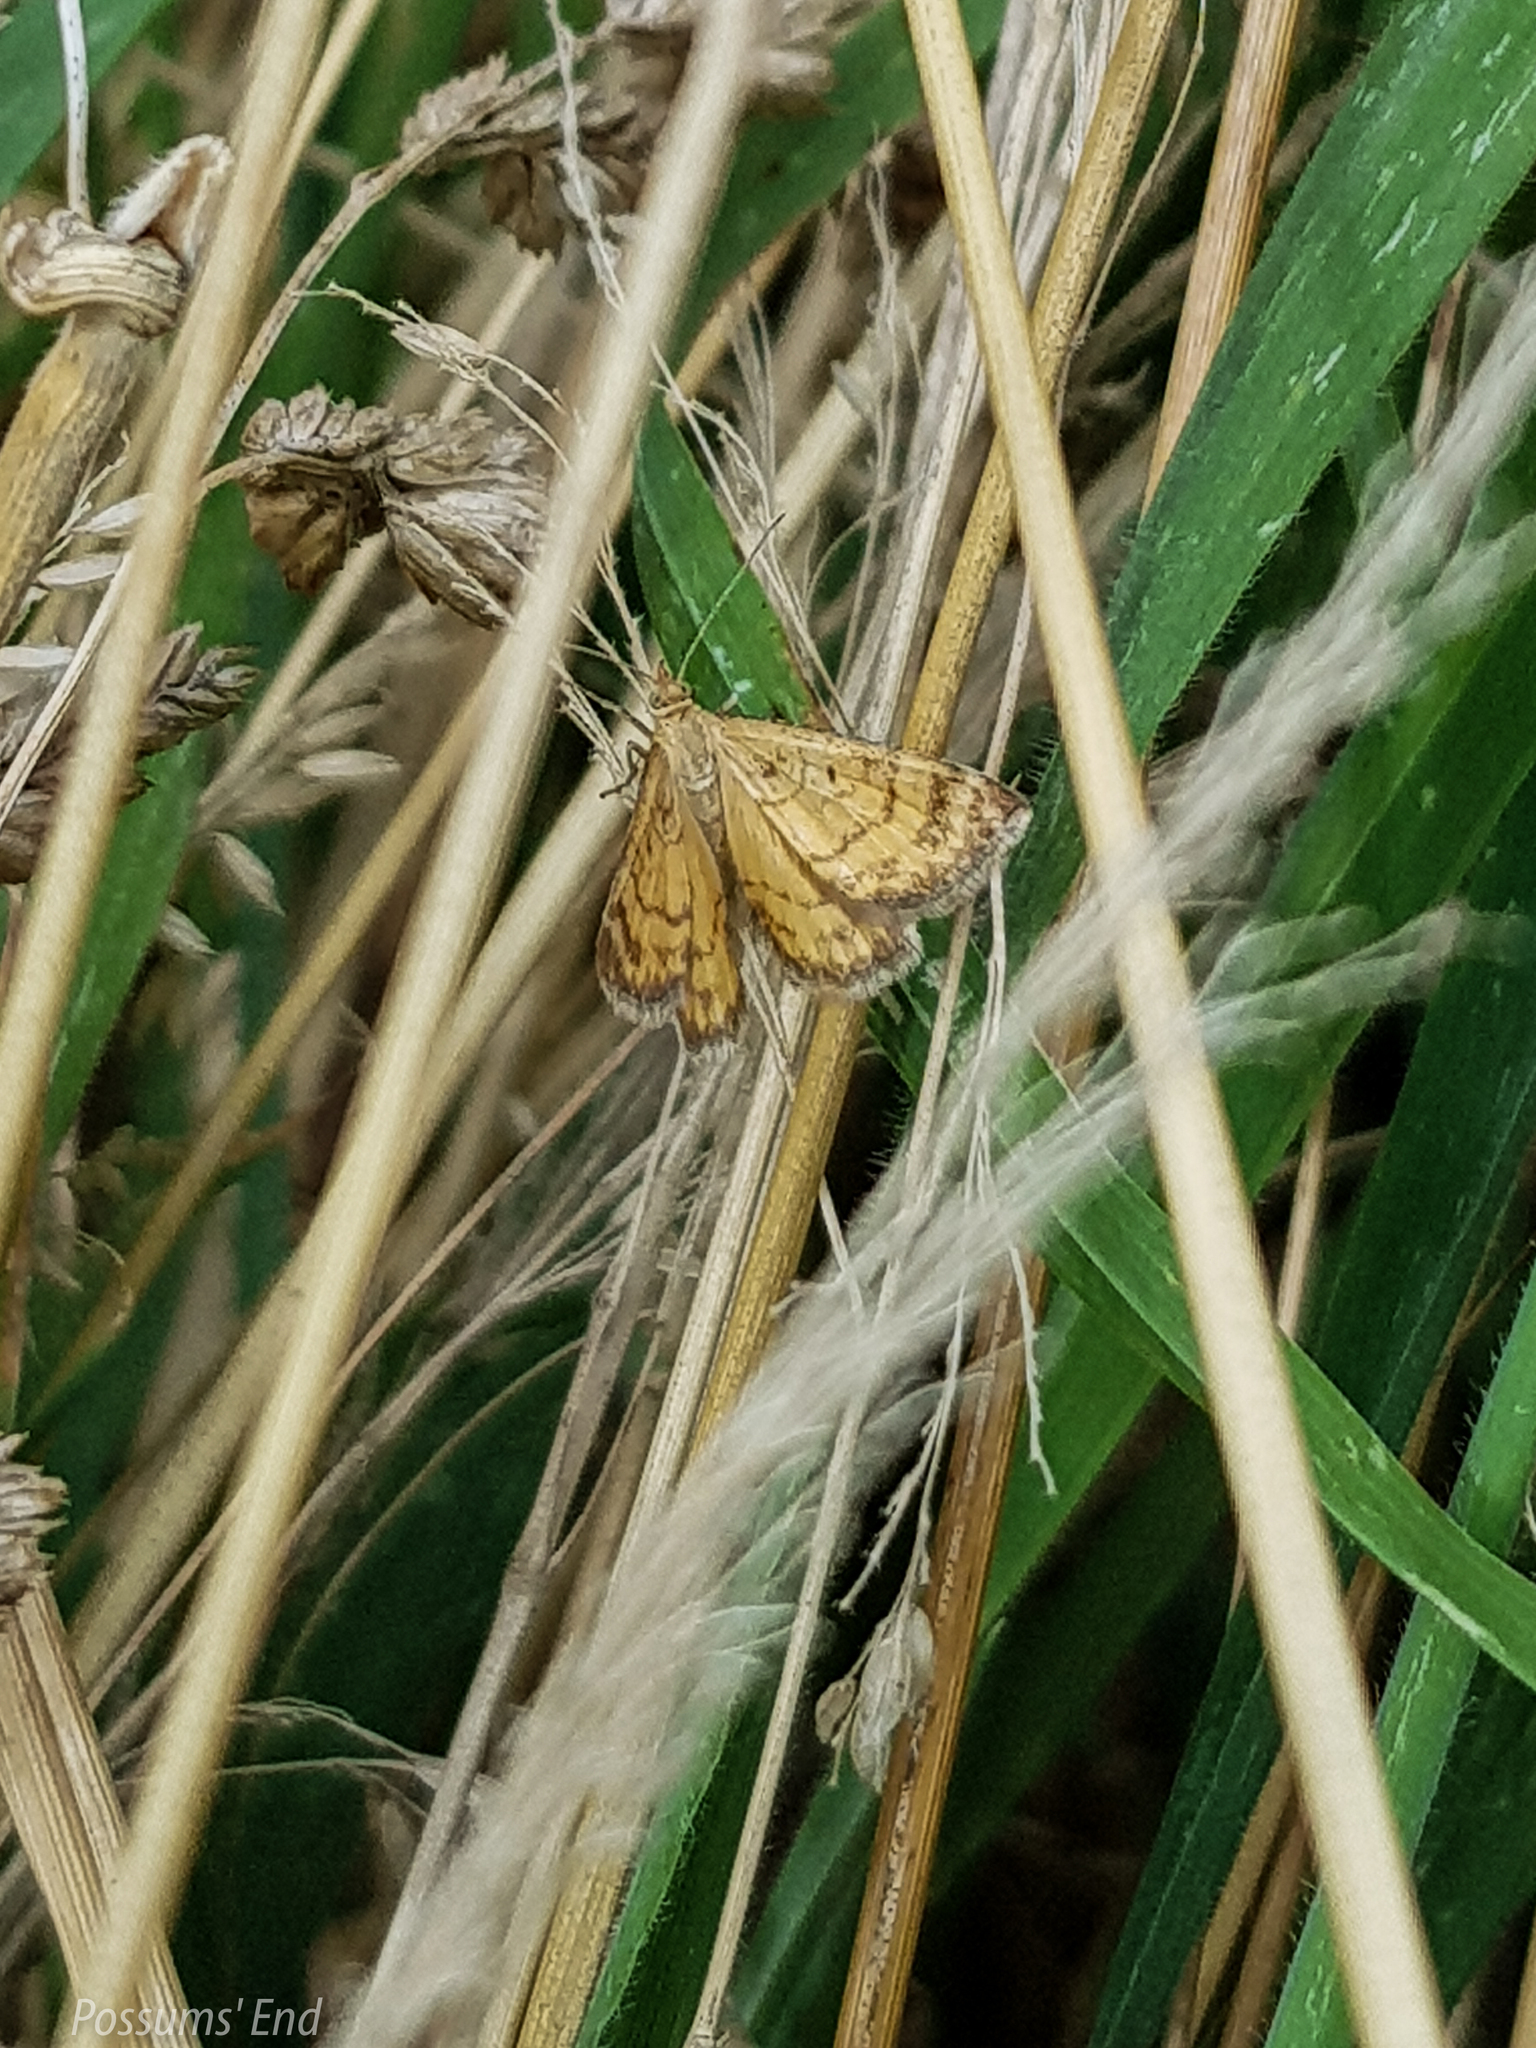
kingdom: Animalia
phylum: Arthropoda
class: Insecta
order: Lepidoptera
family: Geometridae
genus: Asaphodes
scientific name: Asaphodes abrogata
